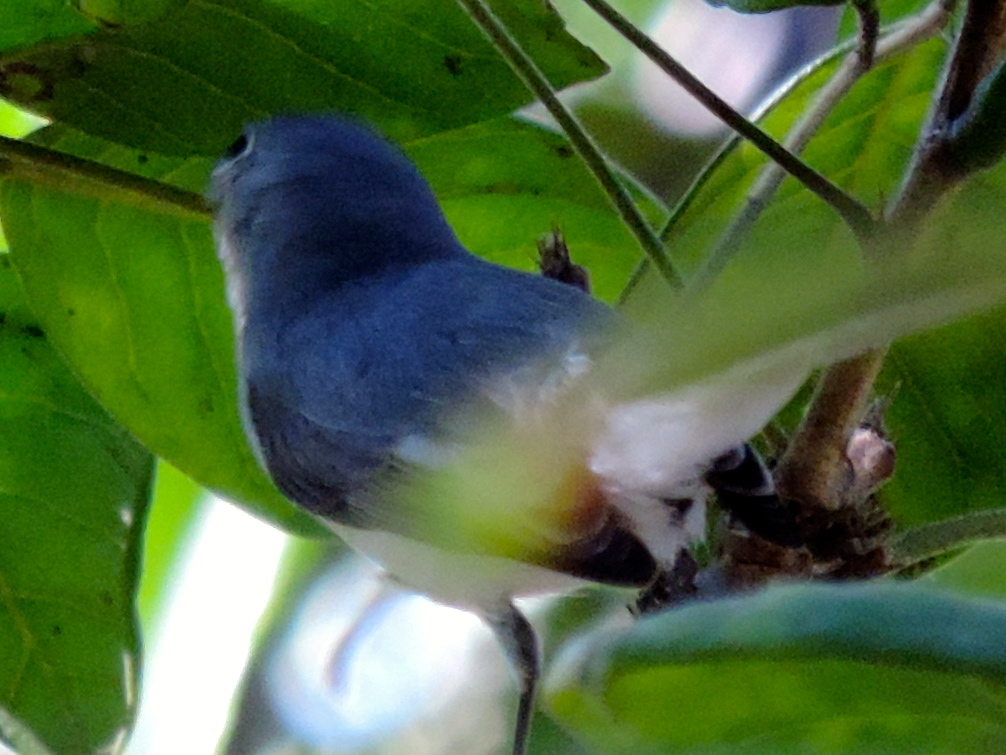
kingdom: Animalia
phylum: Chordata
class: Aves
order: Passeriformes
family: Polioptilidae
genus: Polioptila
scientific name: Polioptila caerulea
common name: Blue-gray gnatcatcher
